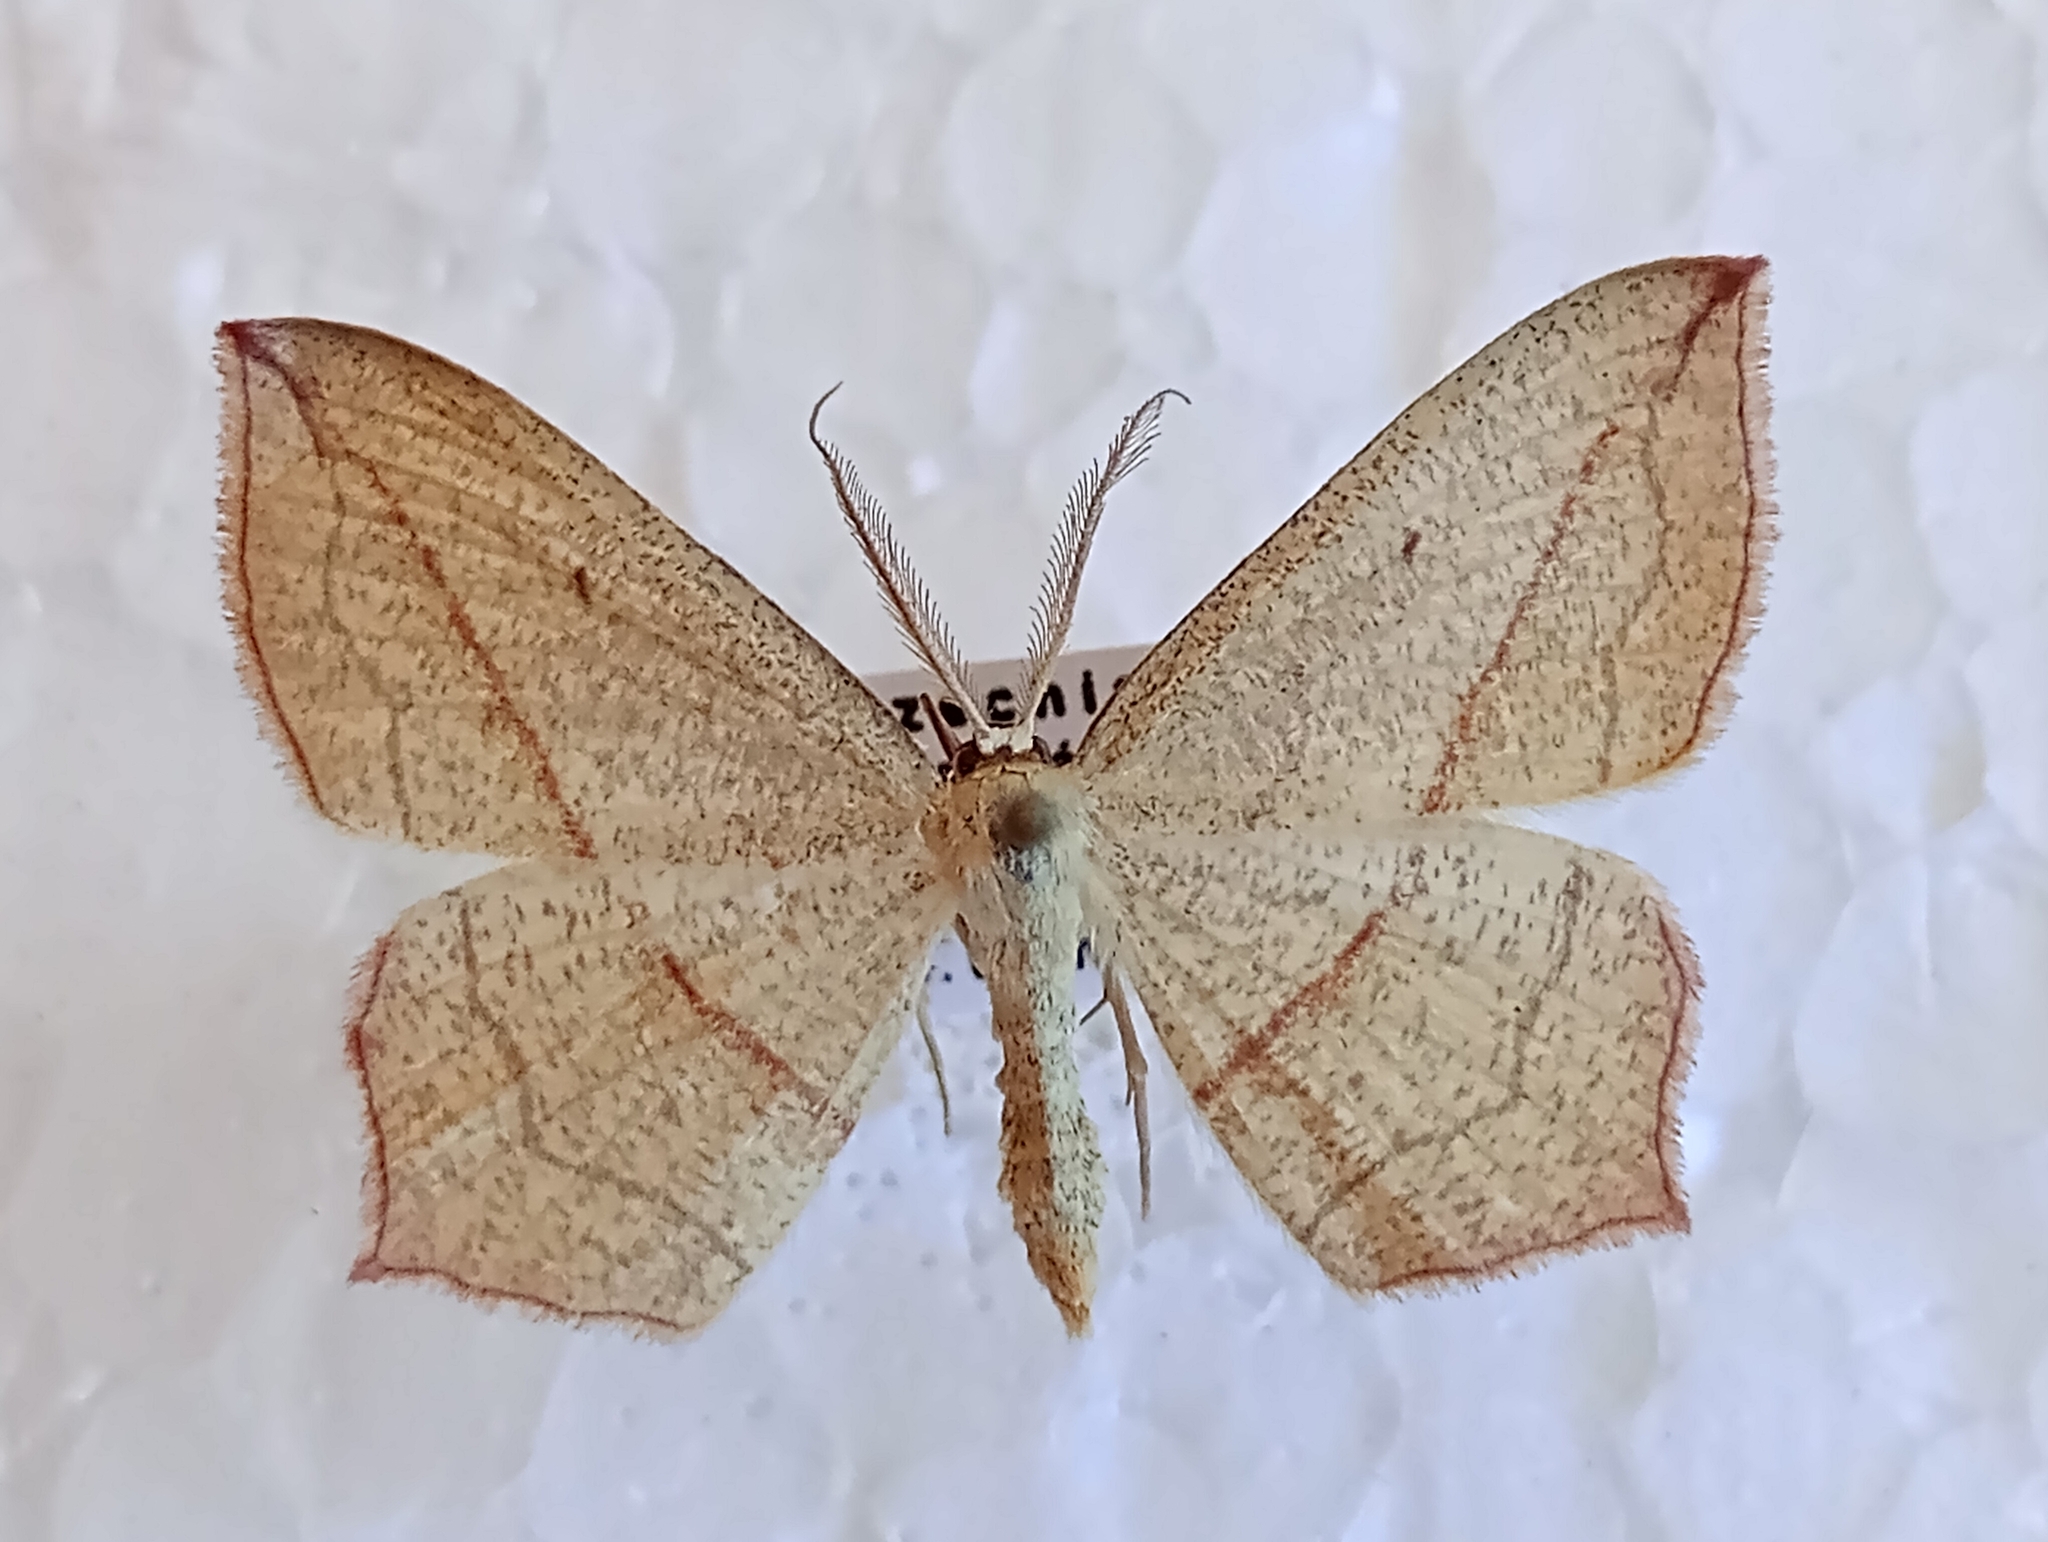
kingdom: Animalia
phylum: Arthropoda
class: Insecta
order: Lepidoptera
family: Geometridae
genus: Timandra
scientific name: Timandra comae
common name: Blood-vein
